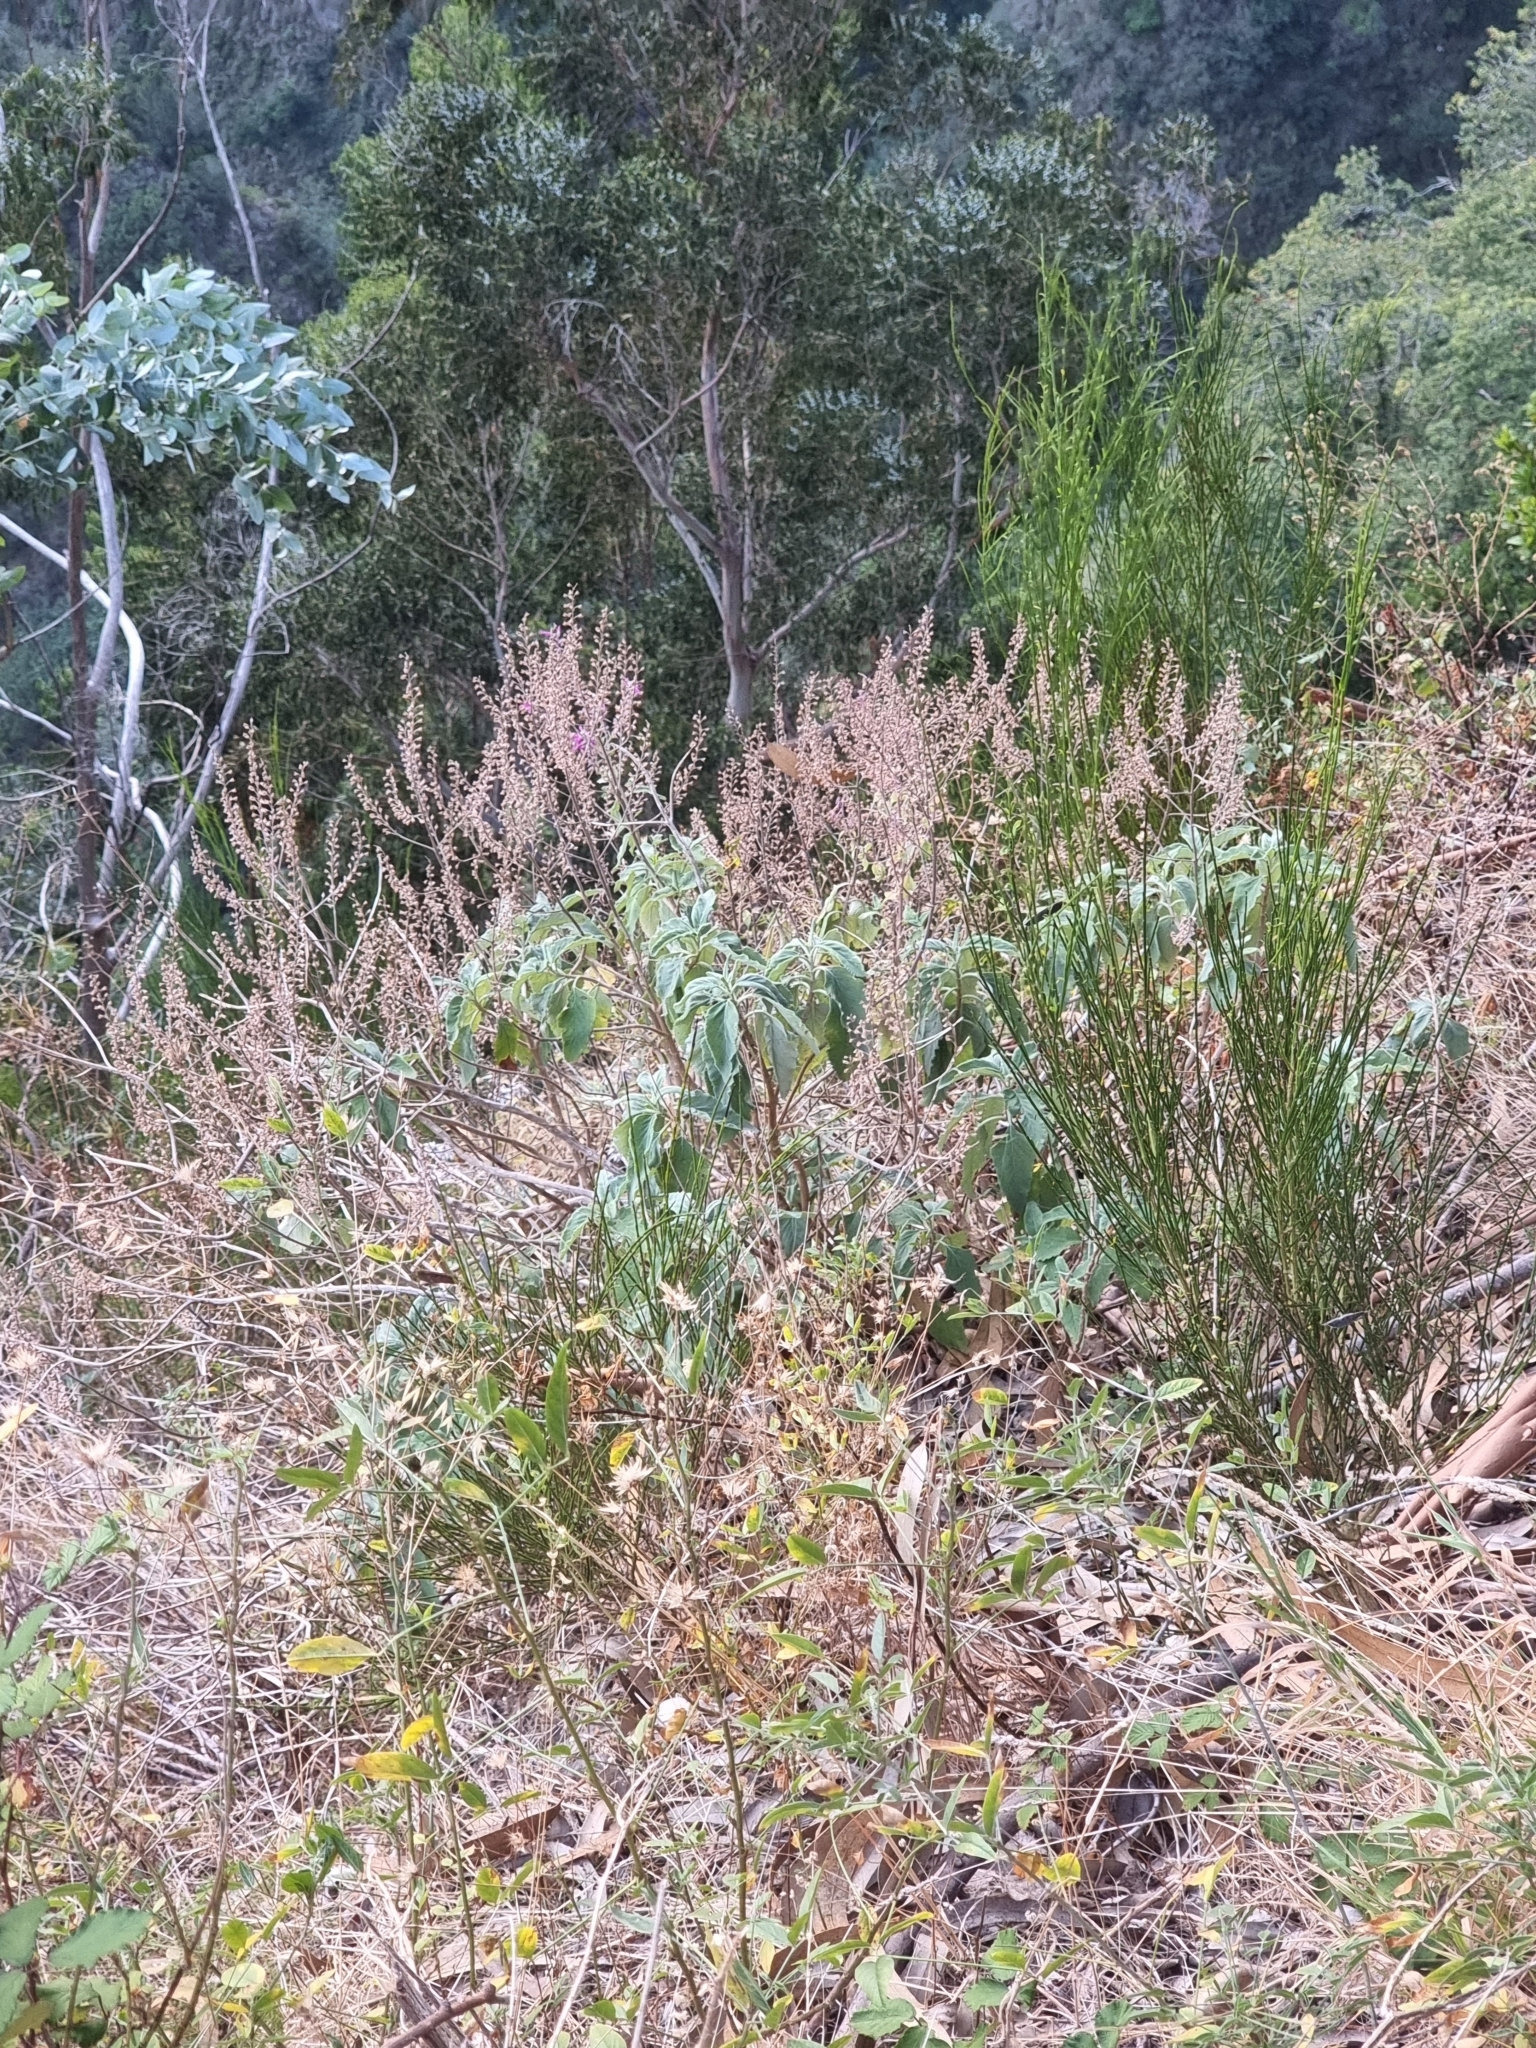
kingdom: Plantae
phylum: Tracheophyta
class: Magnoliopsida
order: Lamiales
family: Lamiaceae
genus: Teucrium
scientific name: Teucrium betonicum
